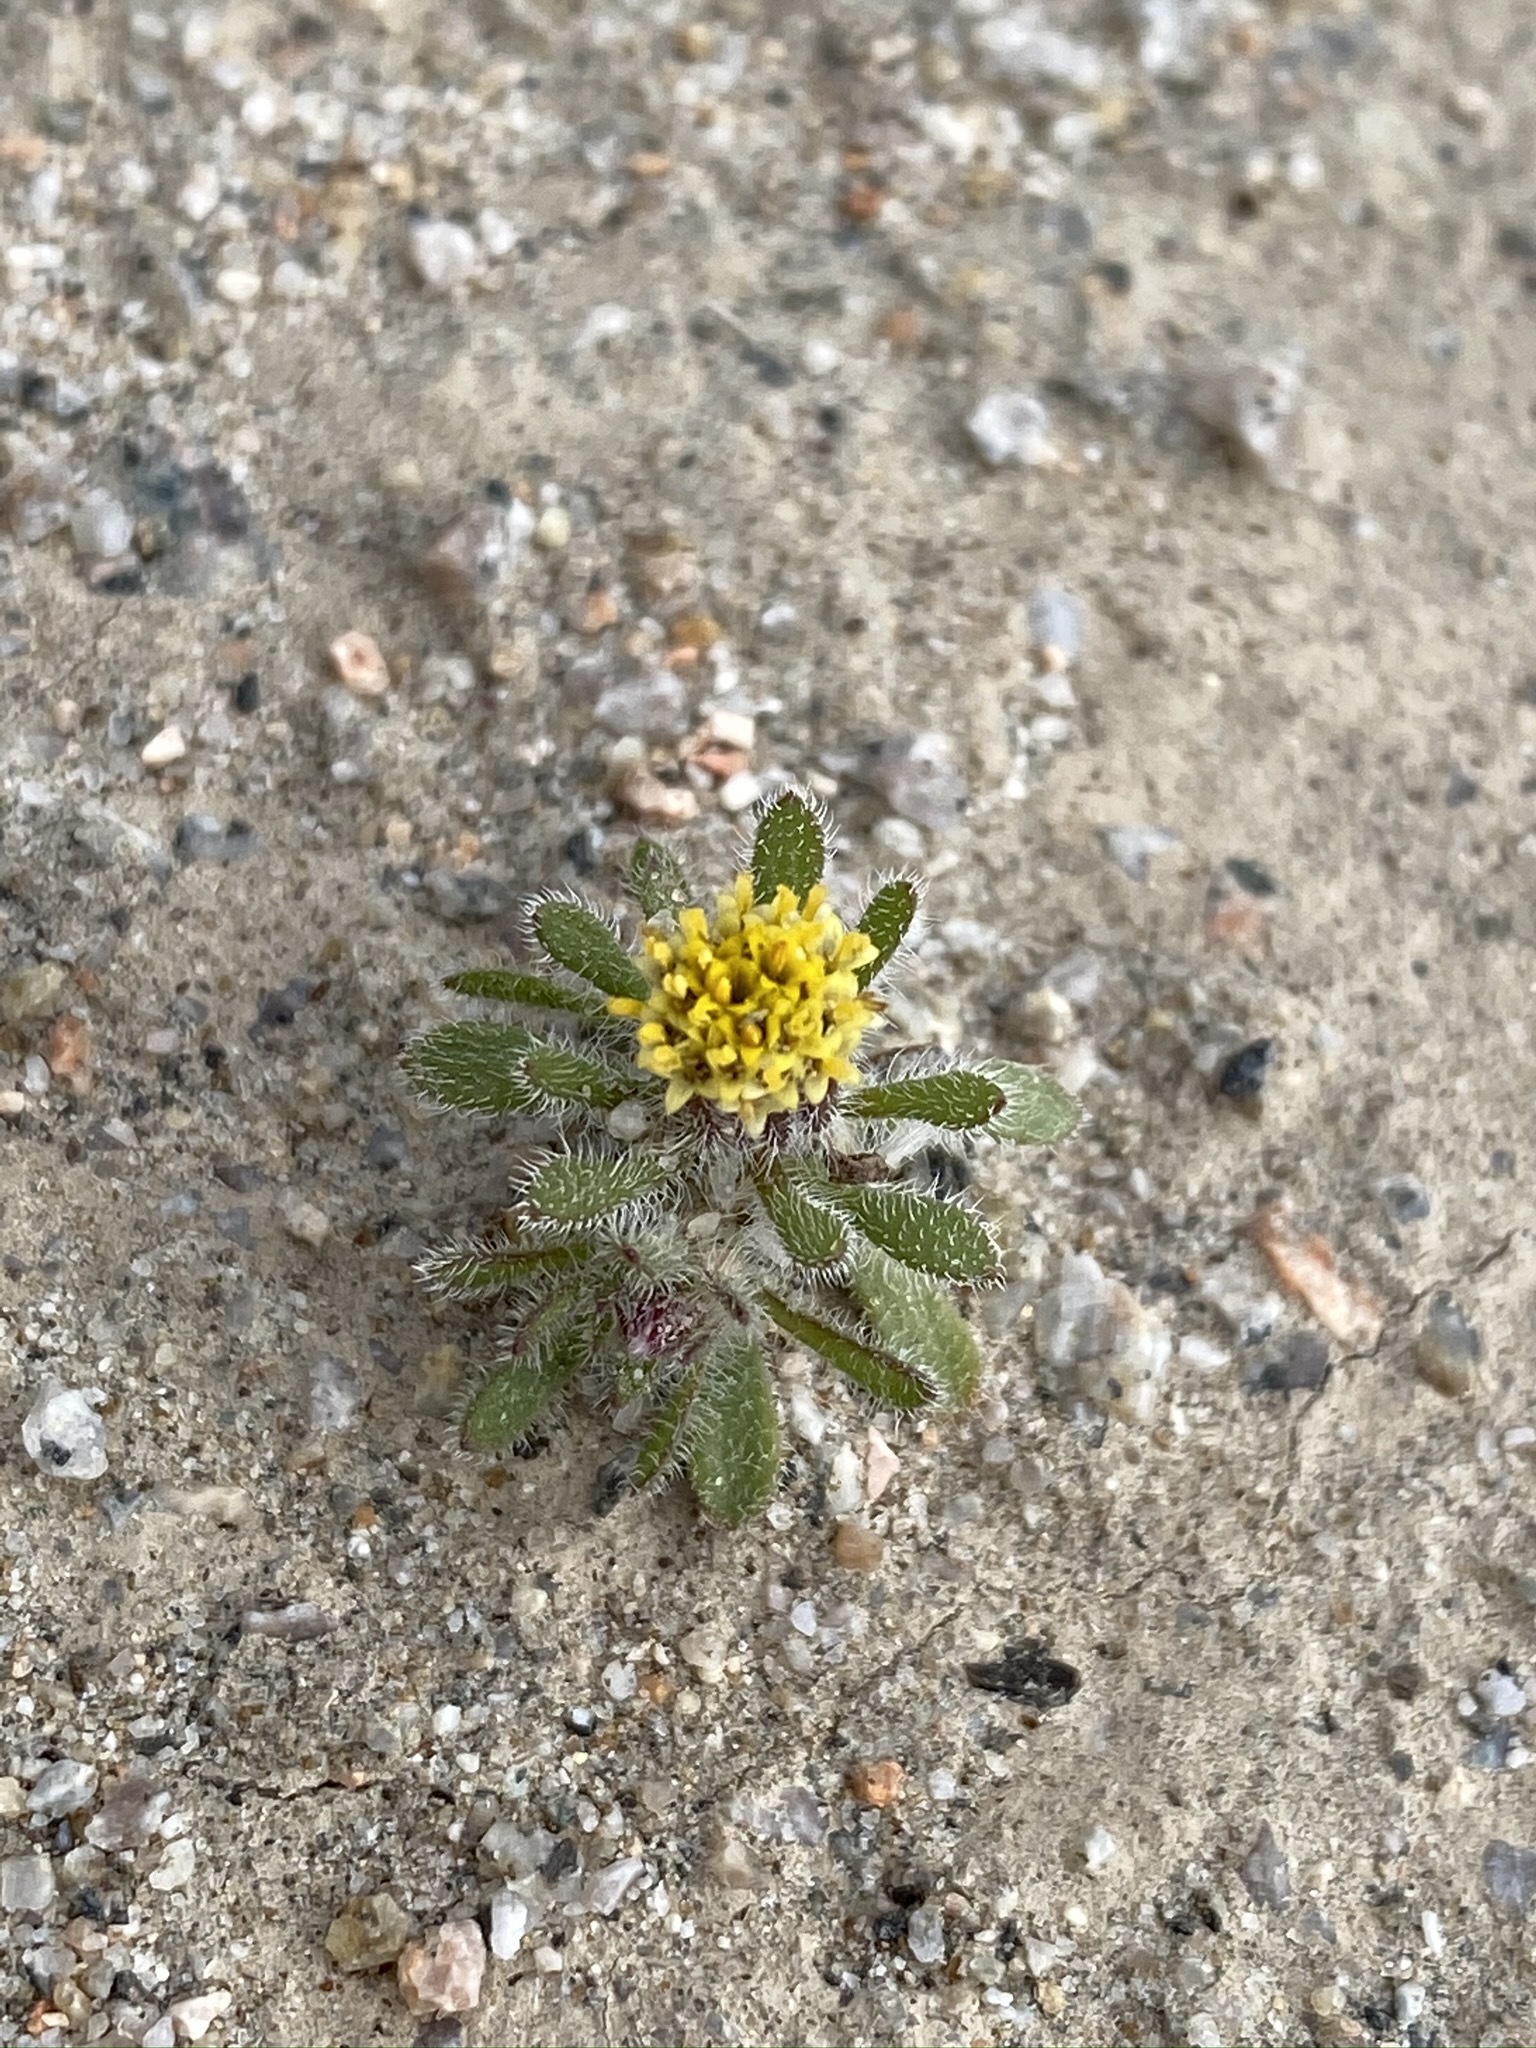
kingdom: Plantae
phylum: Tracheophyta
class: Magnoliopsida
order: Asterales
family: Asteraceae
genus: Monoptilon
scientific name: Monoptilon bellioides
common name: Bristly desertstar
